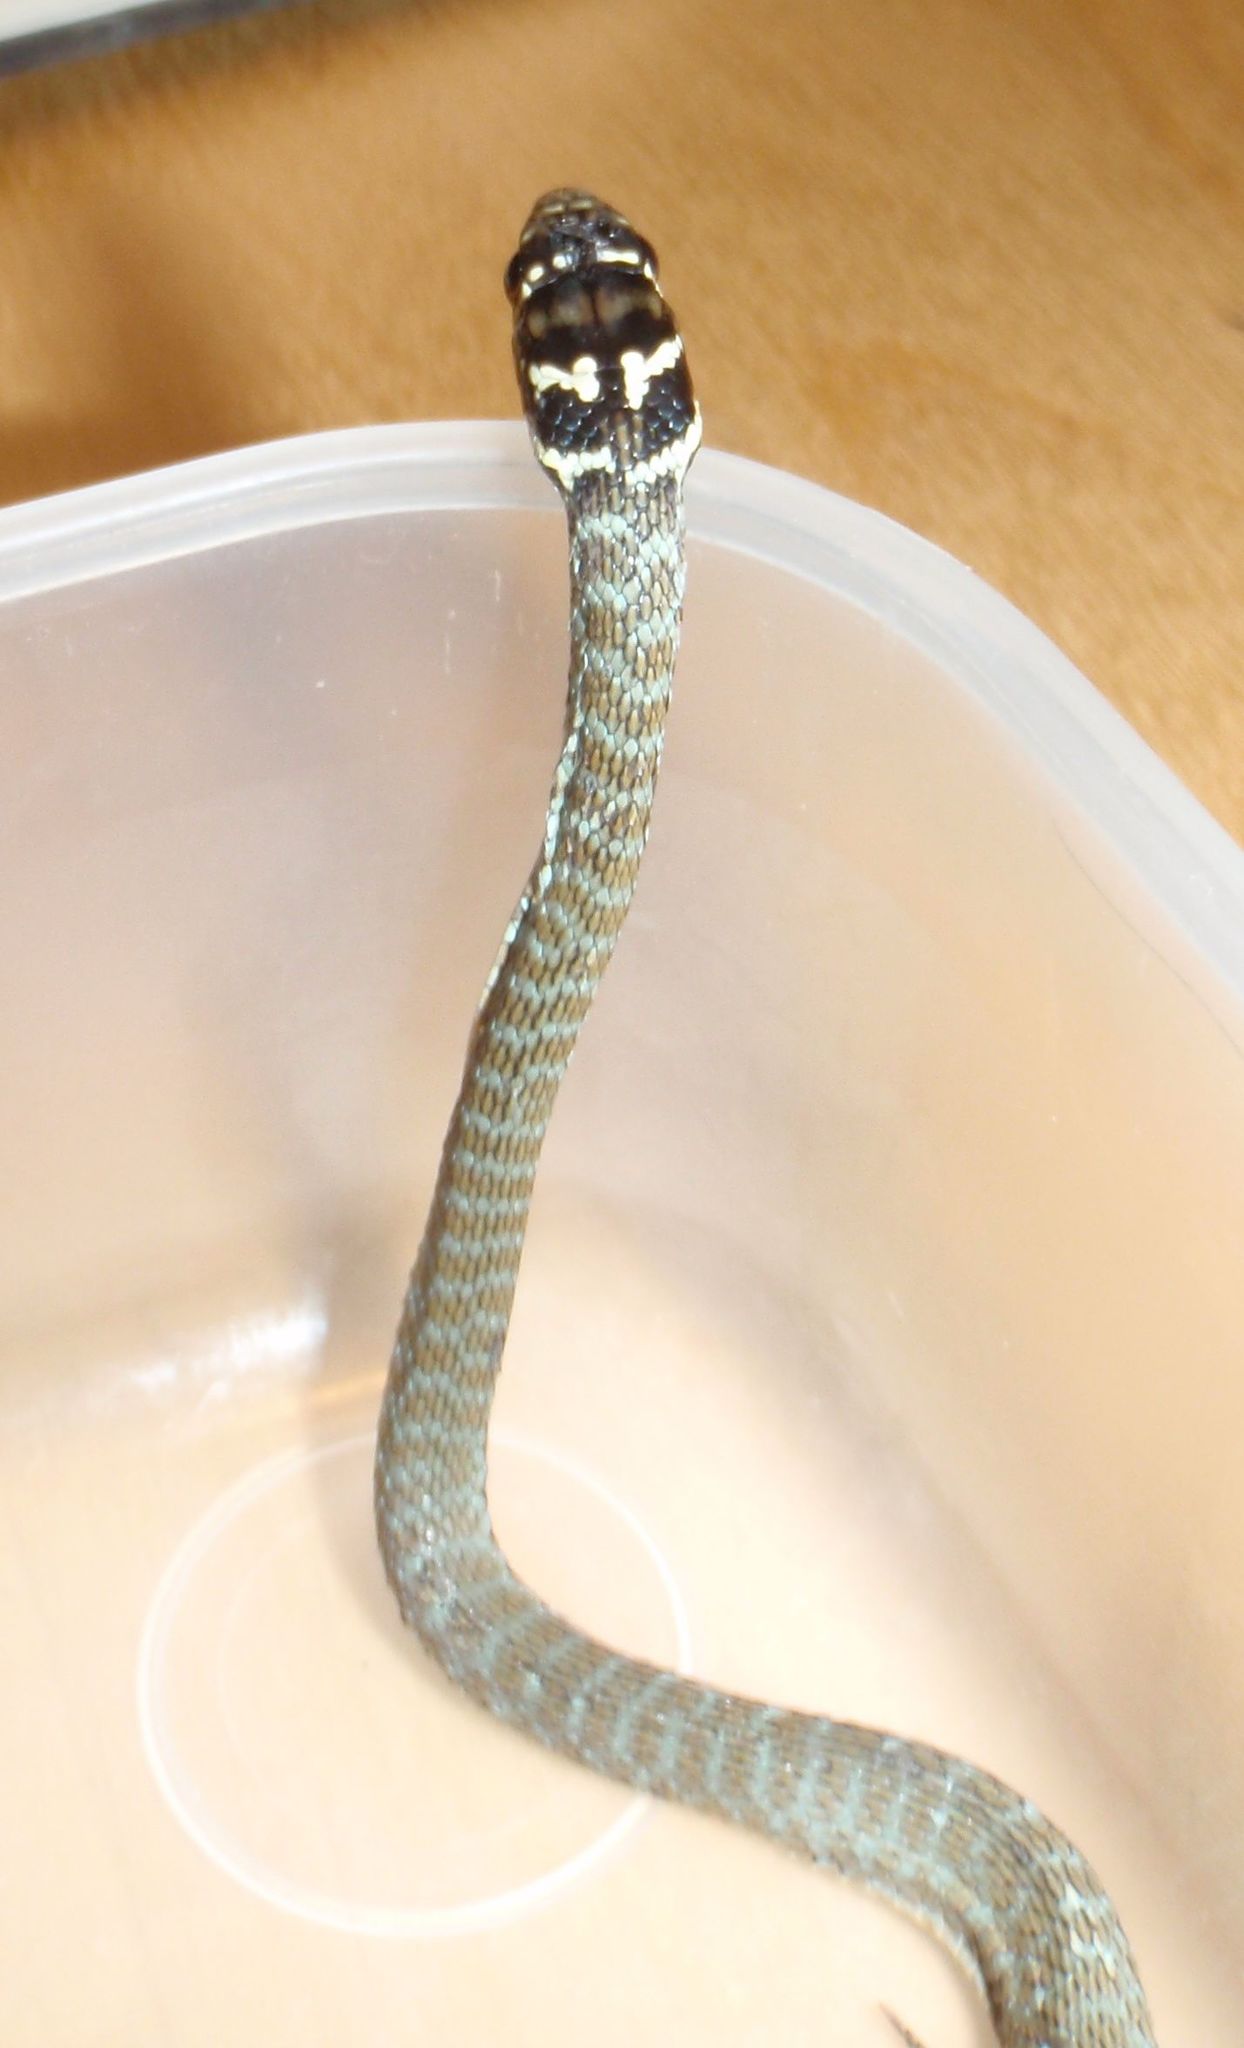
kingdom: Animalia
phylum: Chordata
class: Squamata
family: Colubridae
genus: Hierophis
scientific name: Hierophis viridiflavus
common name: Green whip snake
